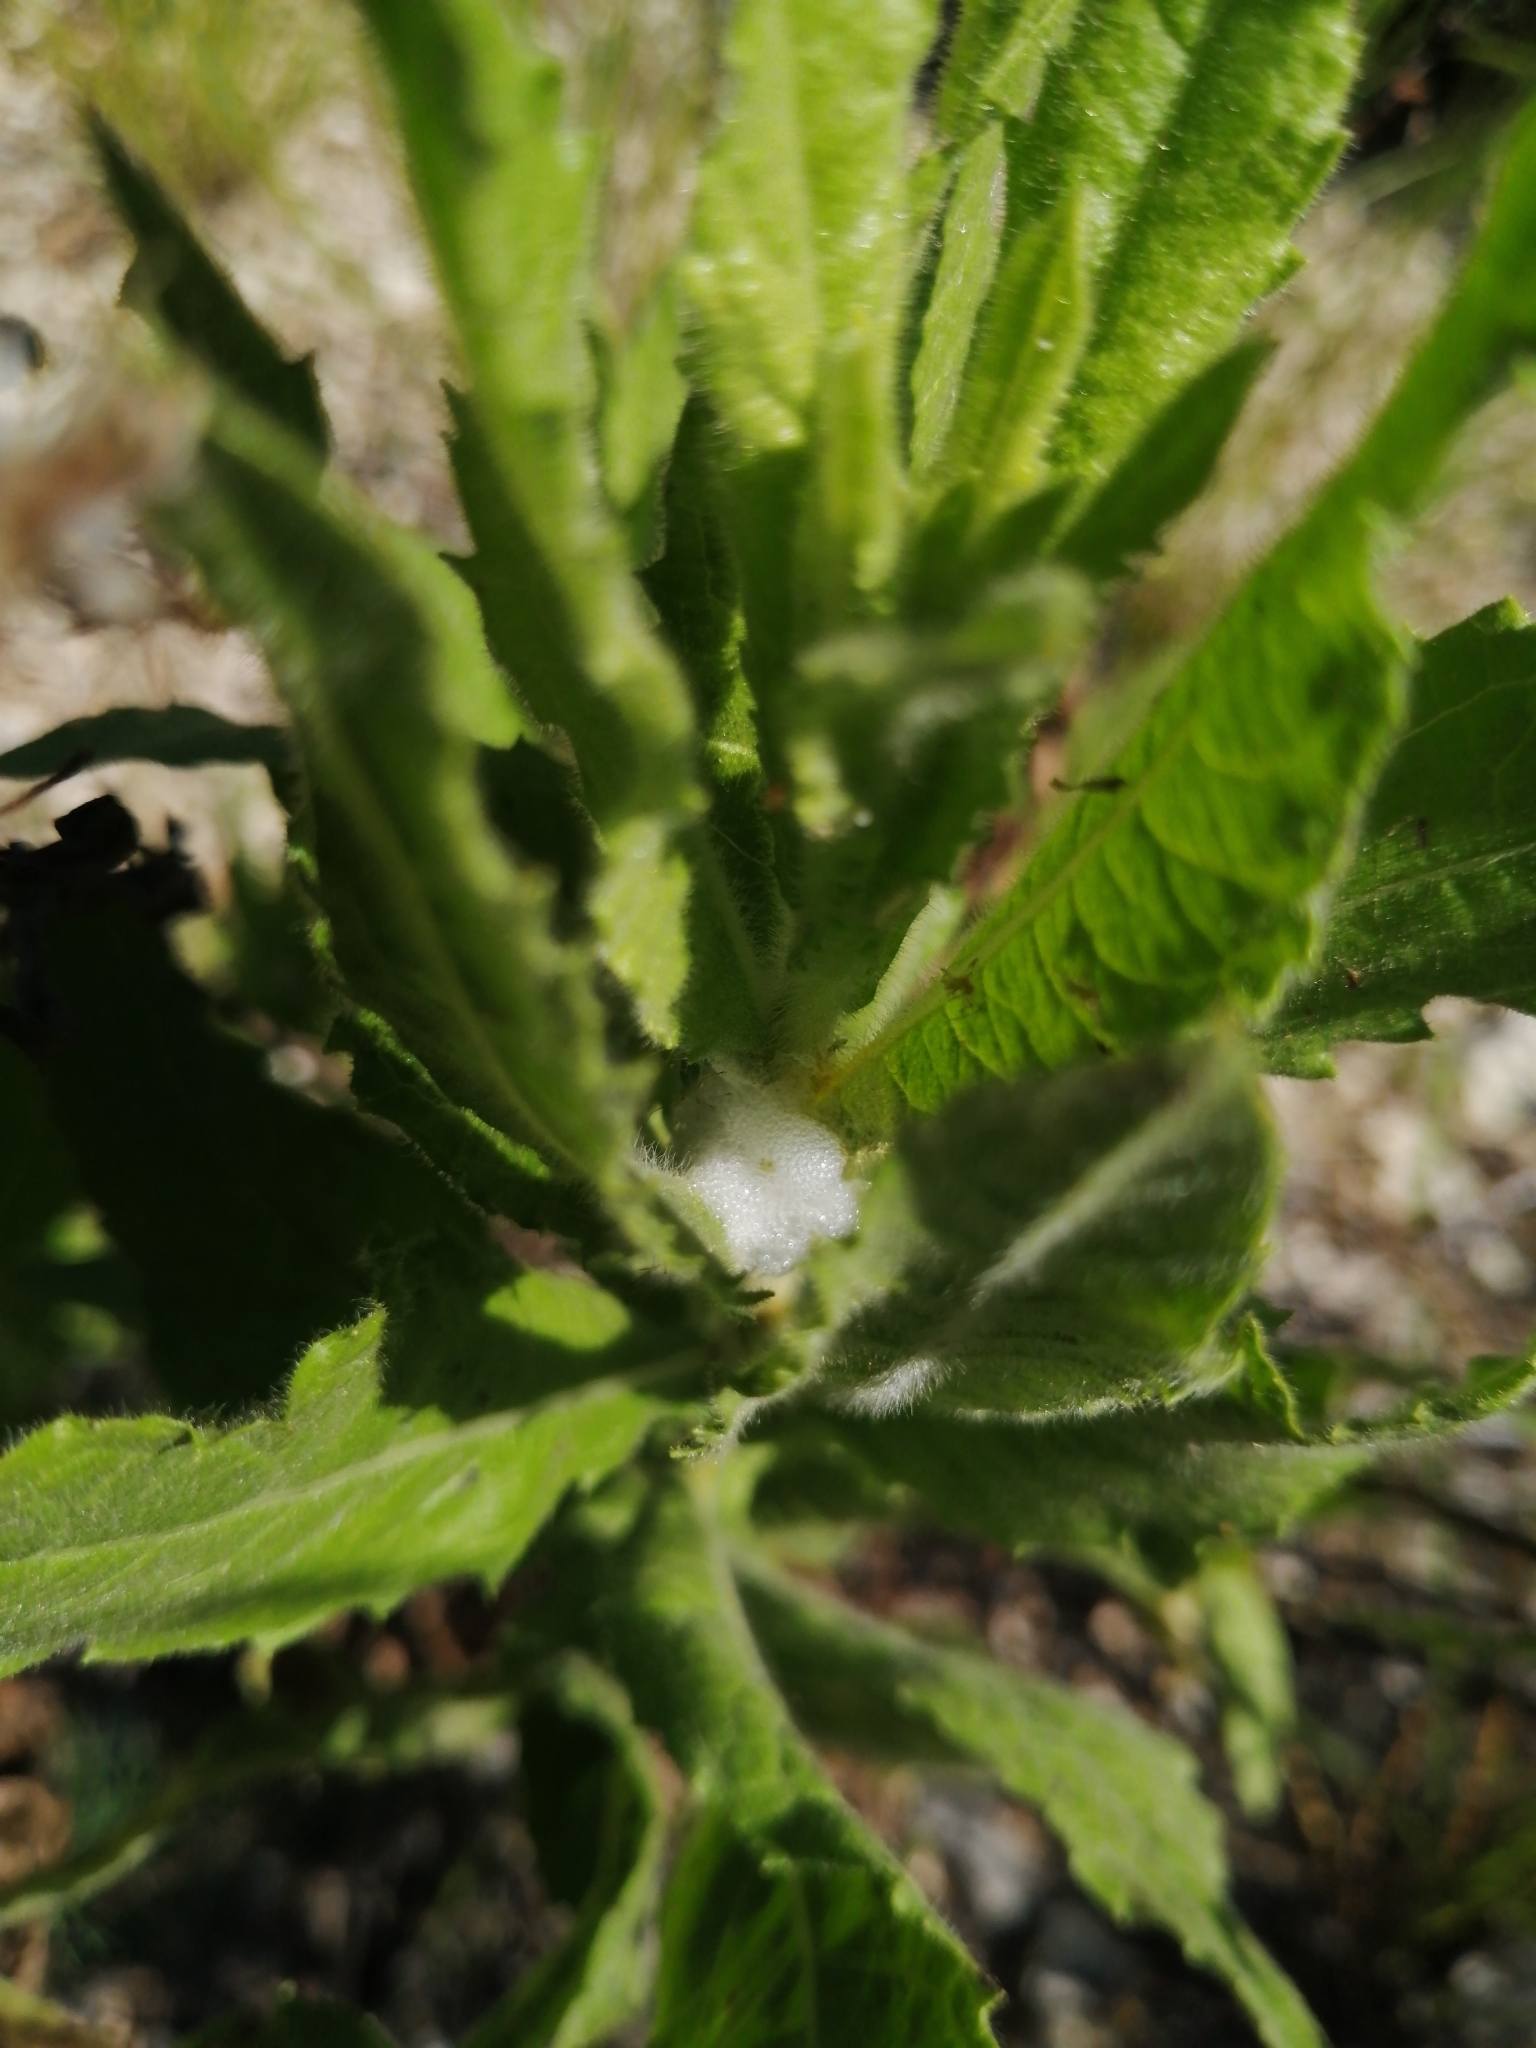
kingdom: Animalia
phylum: Arthropoda
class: Insecta
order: Hemiptera
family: Aphrophoridae
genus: Philaenus
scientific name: Philaenus spumarius
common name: Meadow spittlebug
